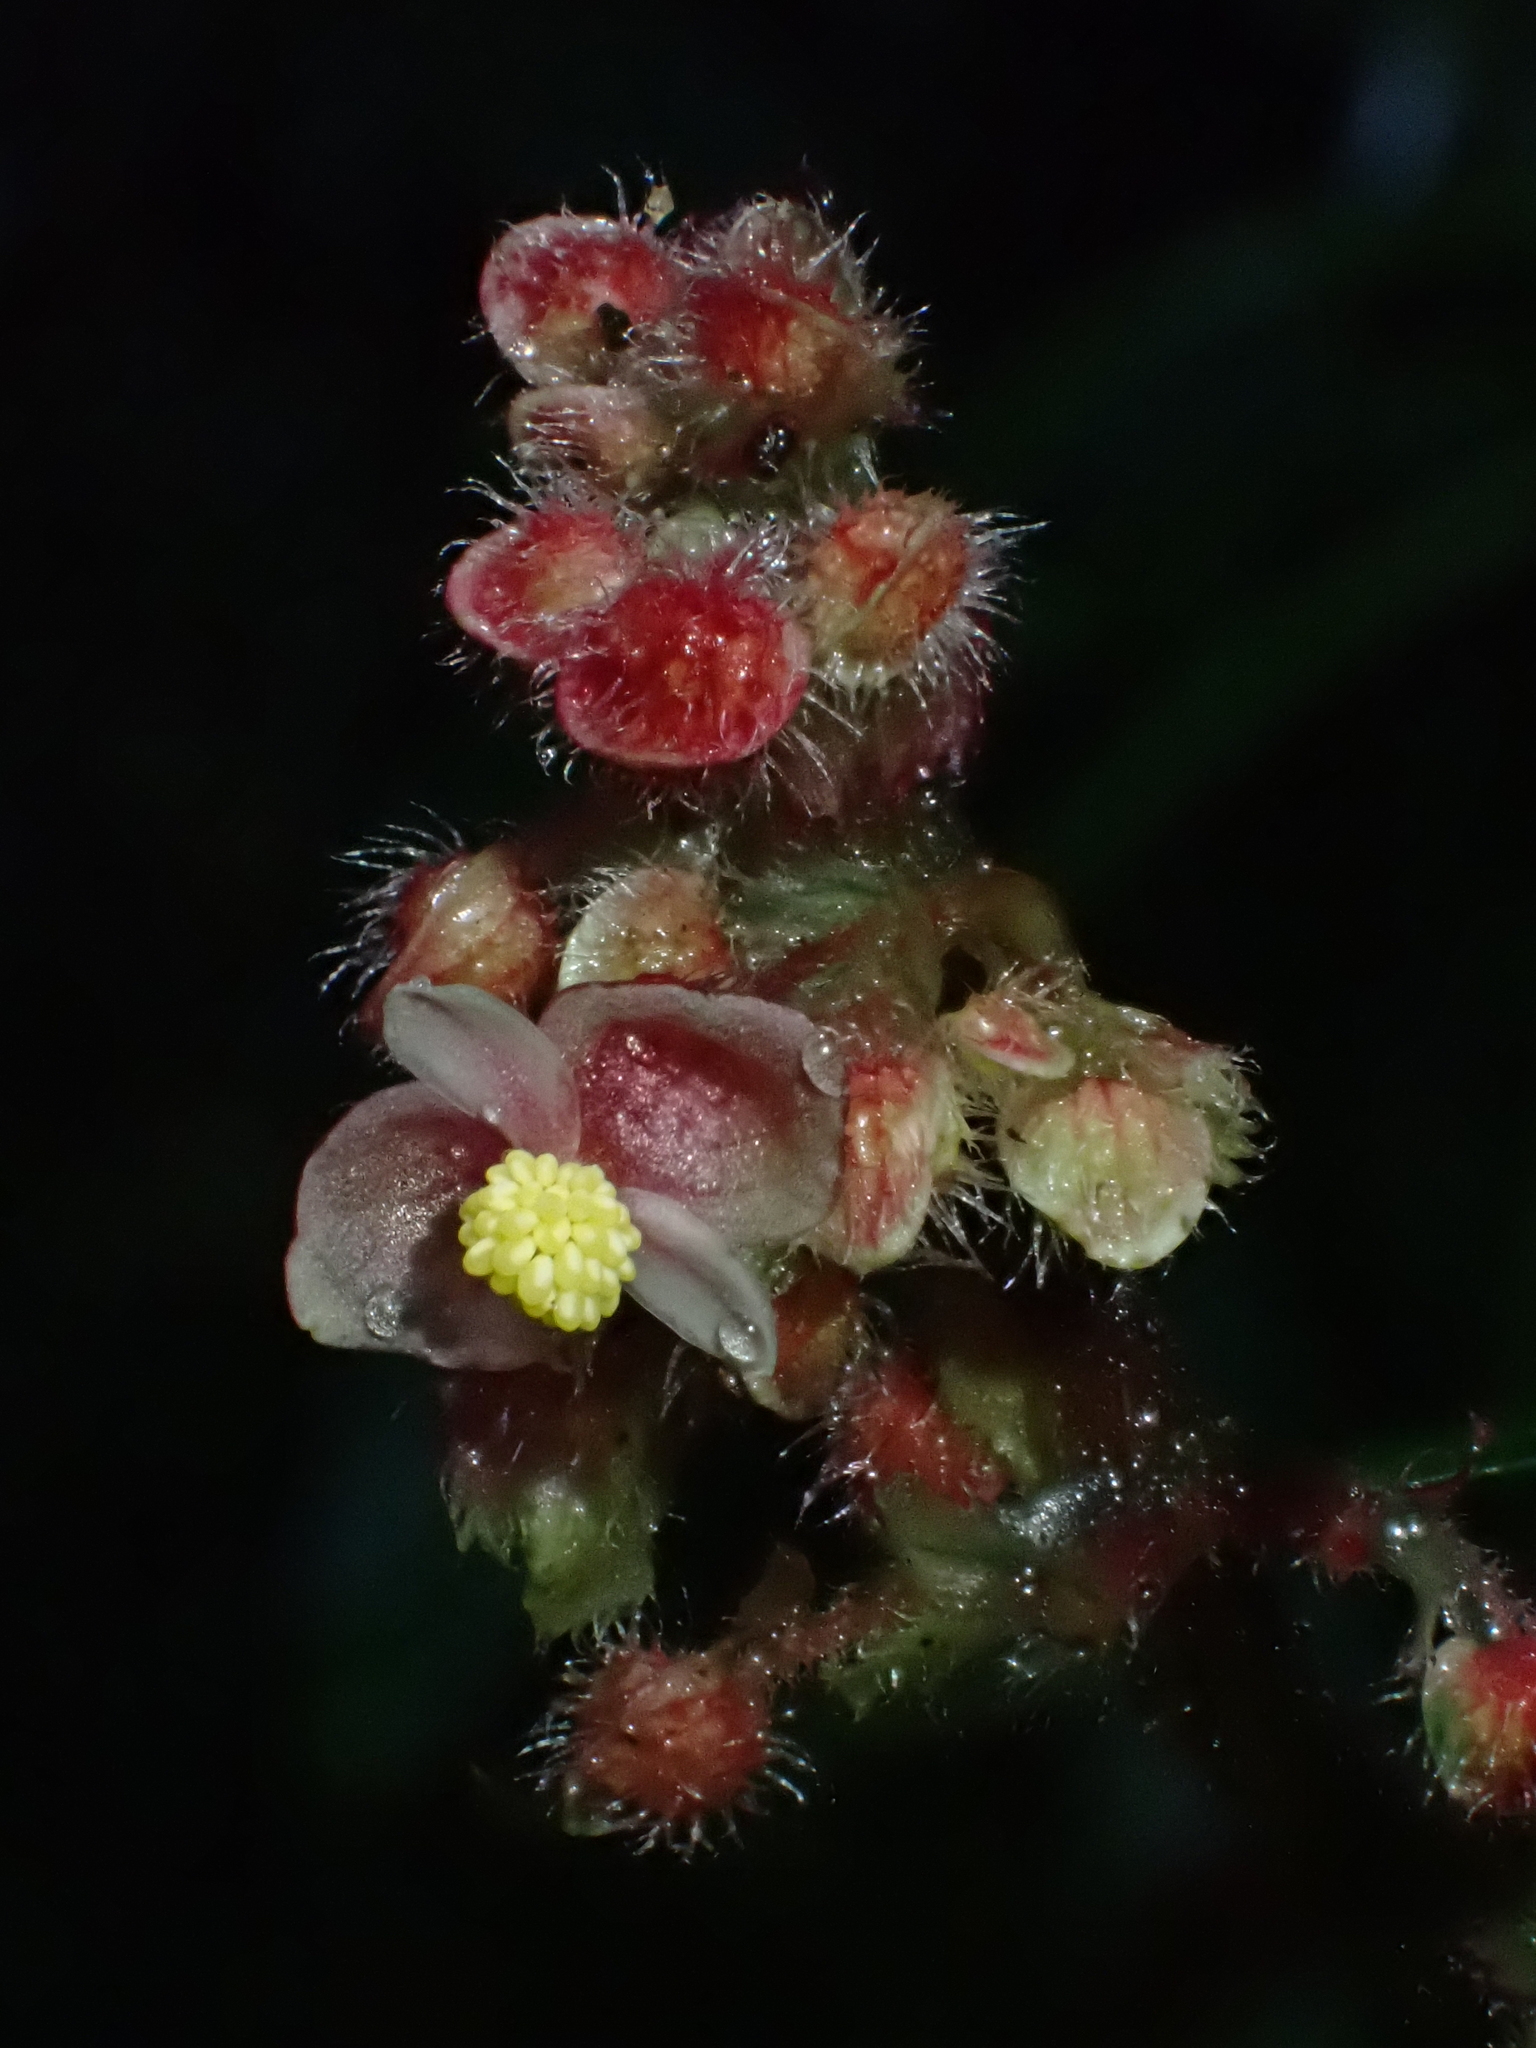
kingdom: Plantae
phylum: Tracheophyta
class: Magnoliopsida
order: Cucurbitales
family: Begoniaceae
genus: Begonia
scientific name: Begonia buddleiifolia
